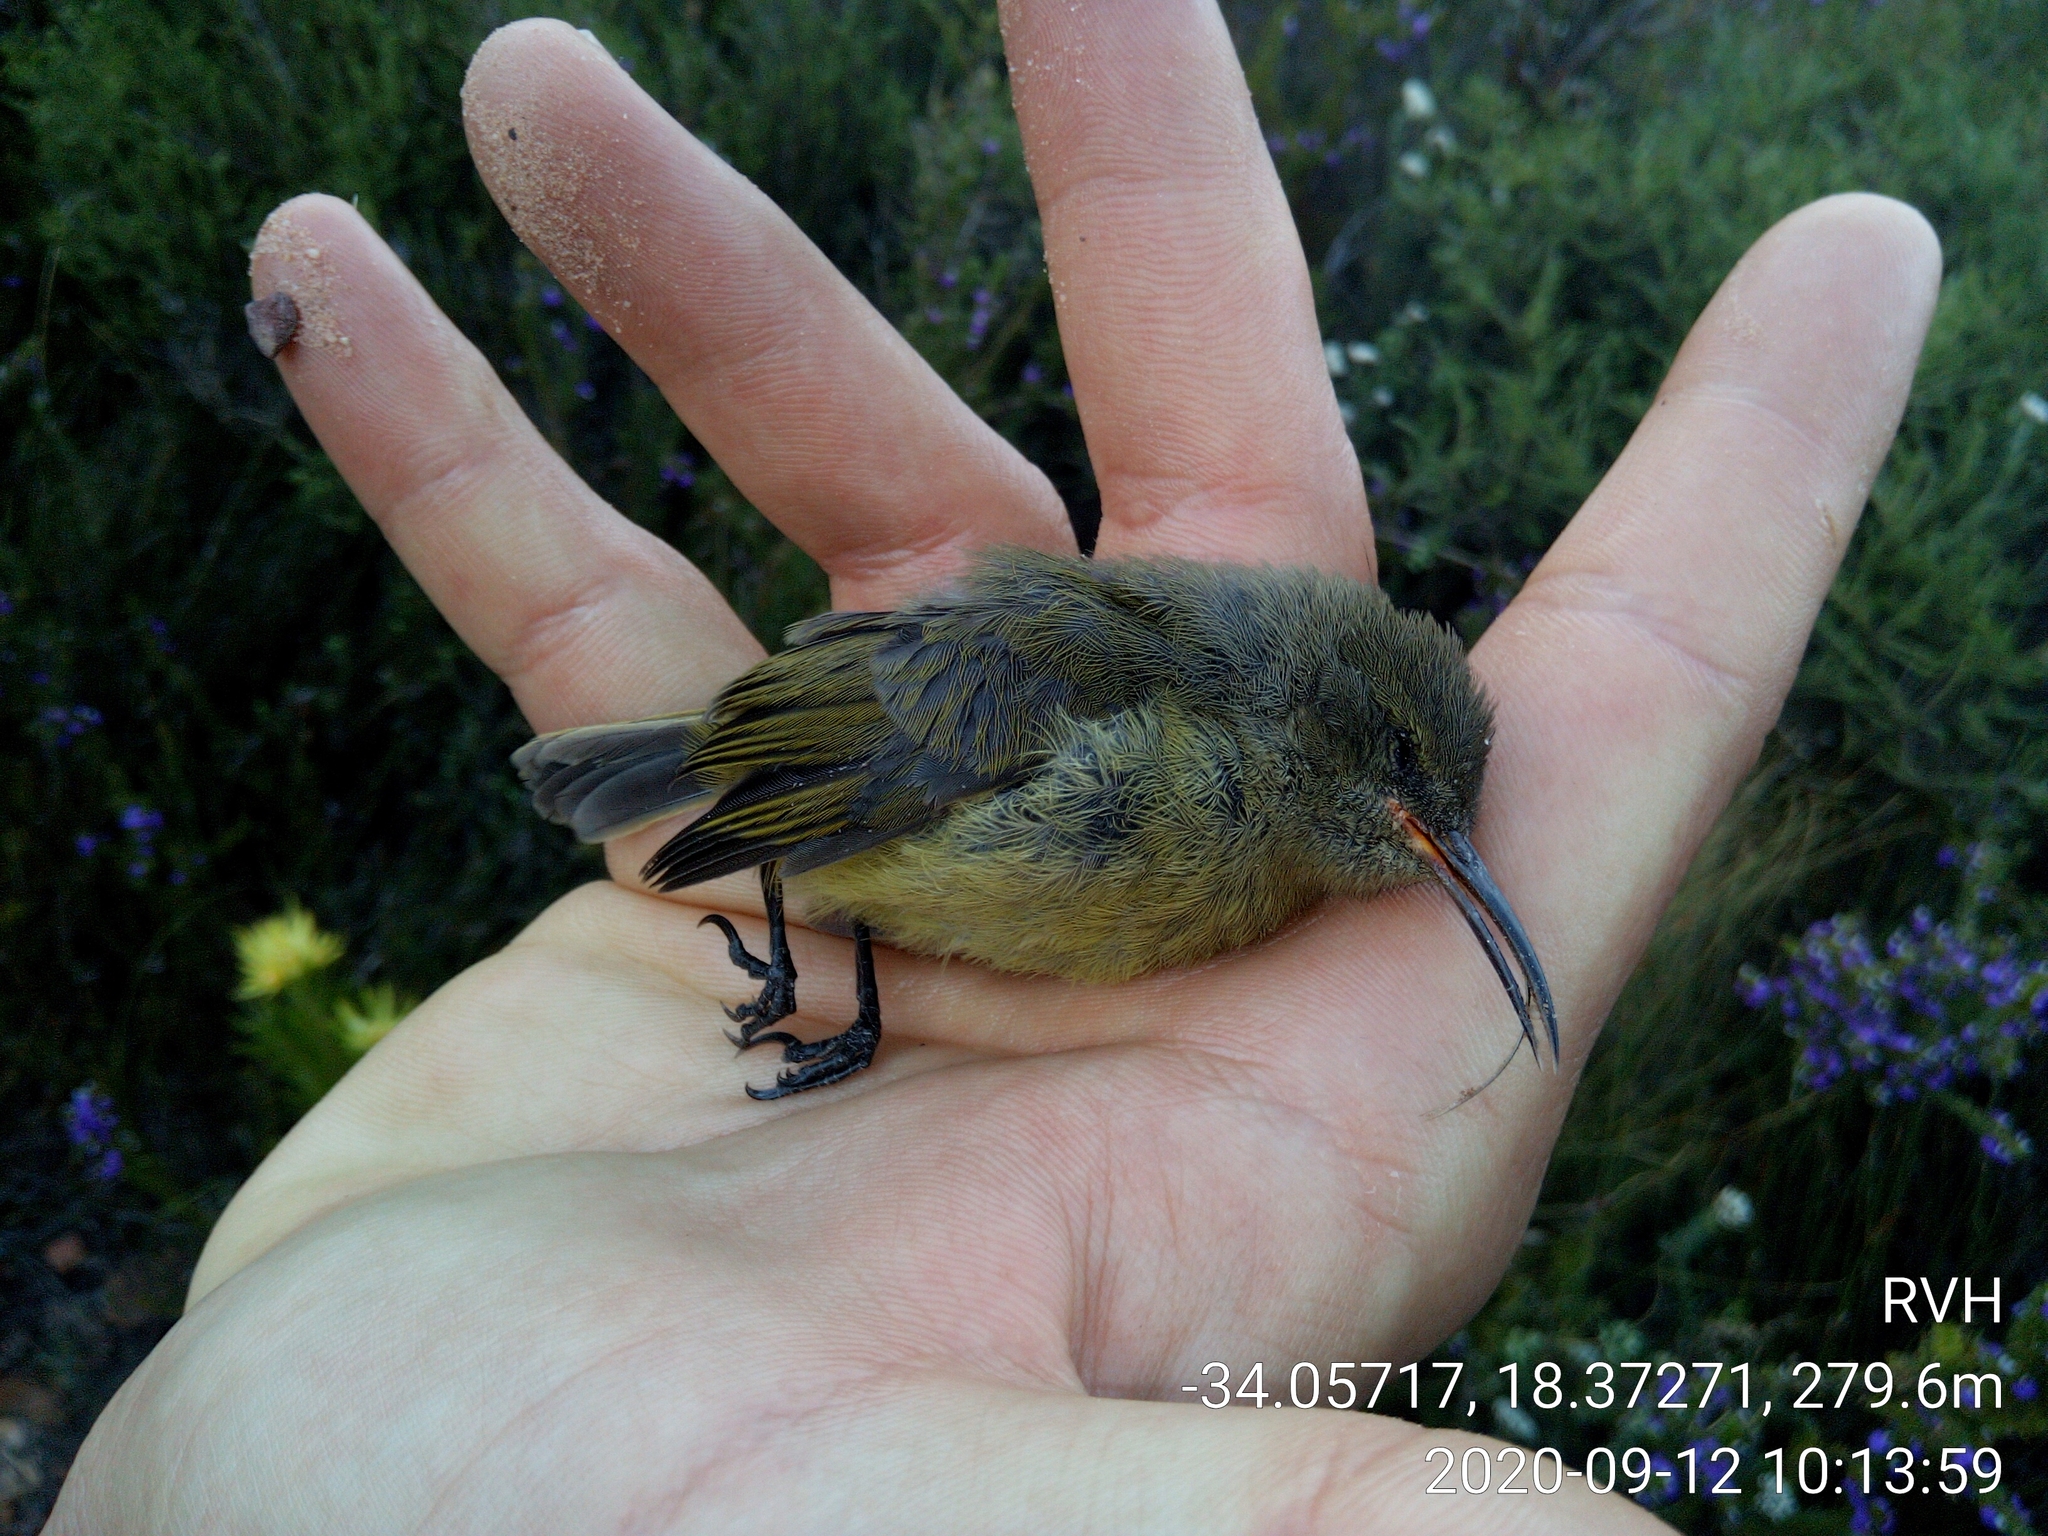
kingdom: Animalia
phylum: Chordata
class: Aves
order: Passeriformes
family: Nectariniidae
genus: Anthobaphes
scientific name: Anthobaphes violacea
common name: Orange-breasted sunbird
